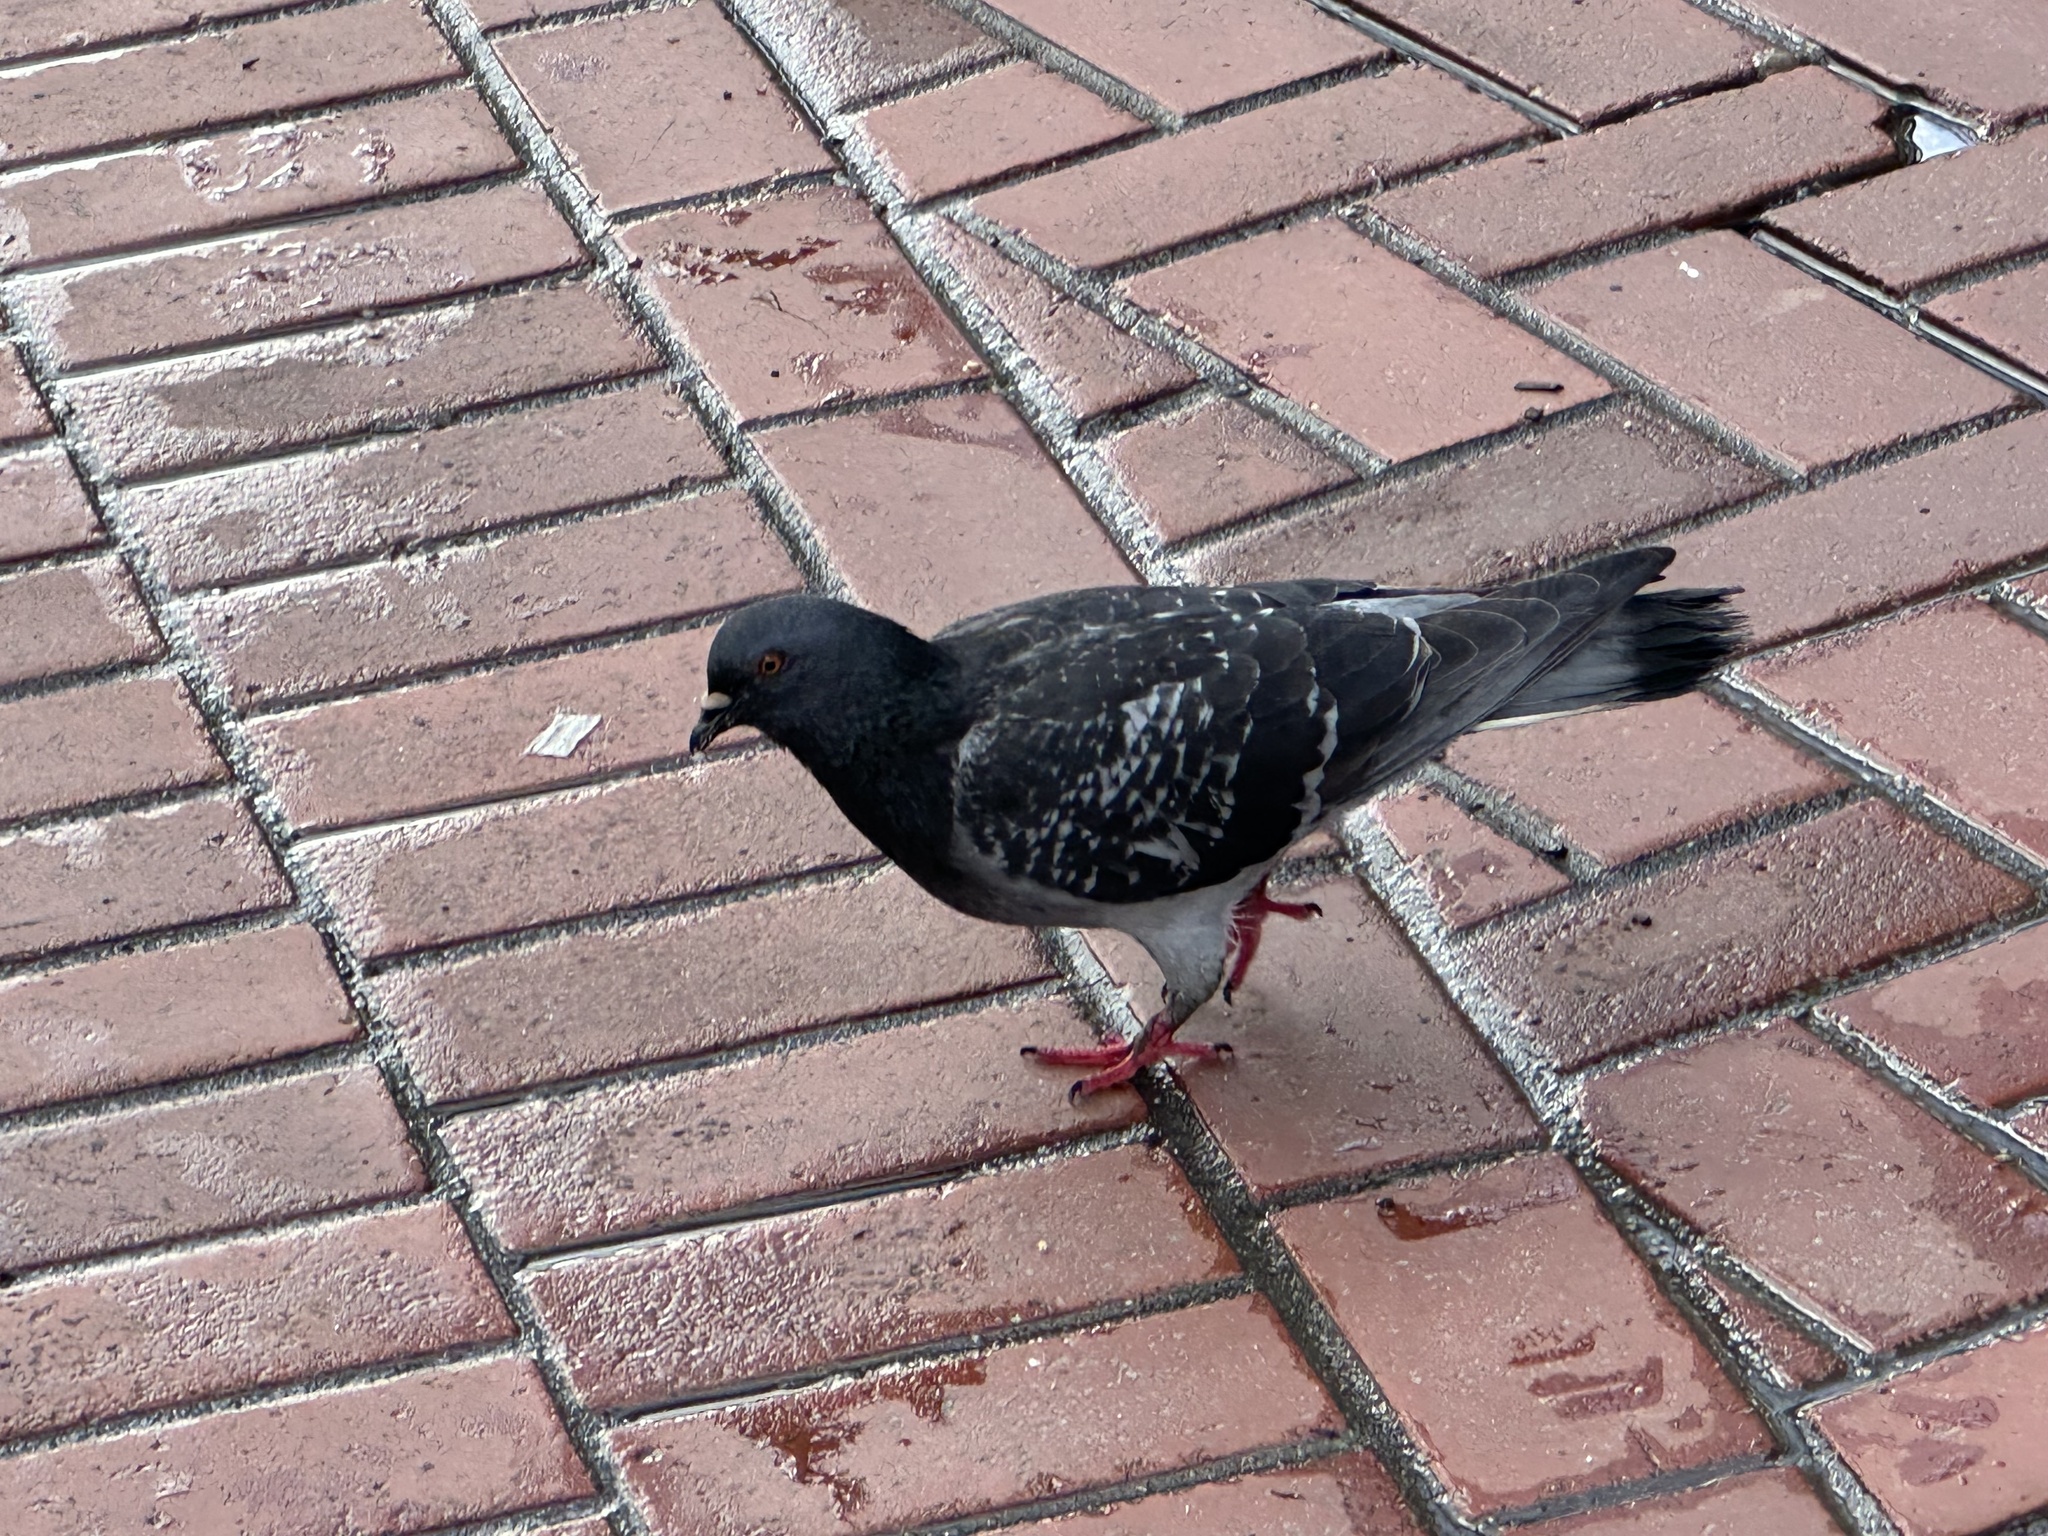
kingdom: Animalia
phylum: Chordata
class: Aves
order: Columbiformes
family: Columbidae
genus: Columba
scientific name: Columba livia
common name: Rock pigeon
